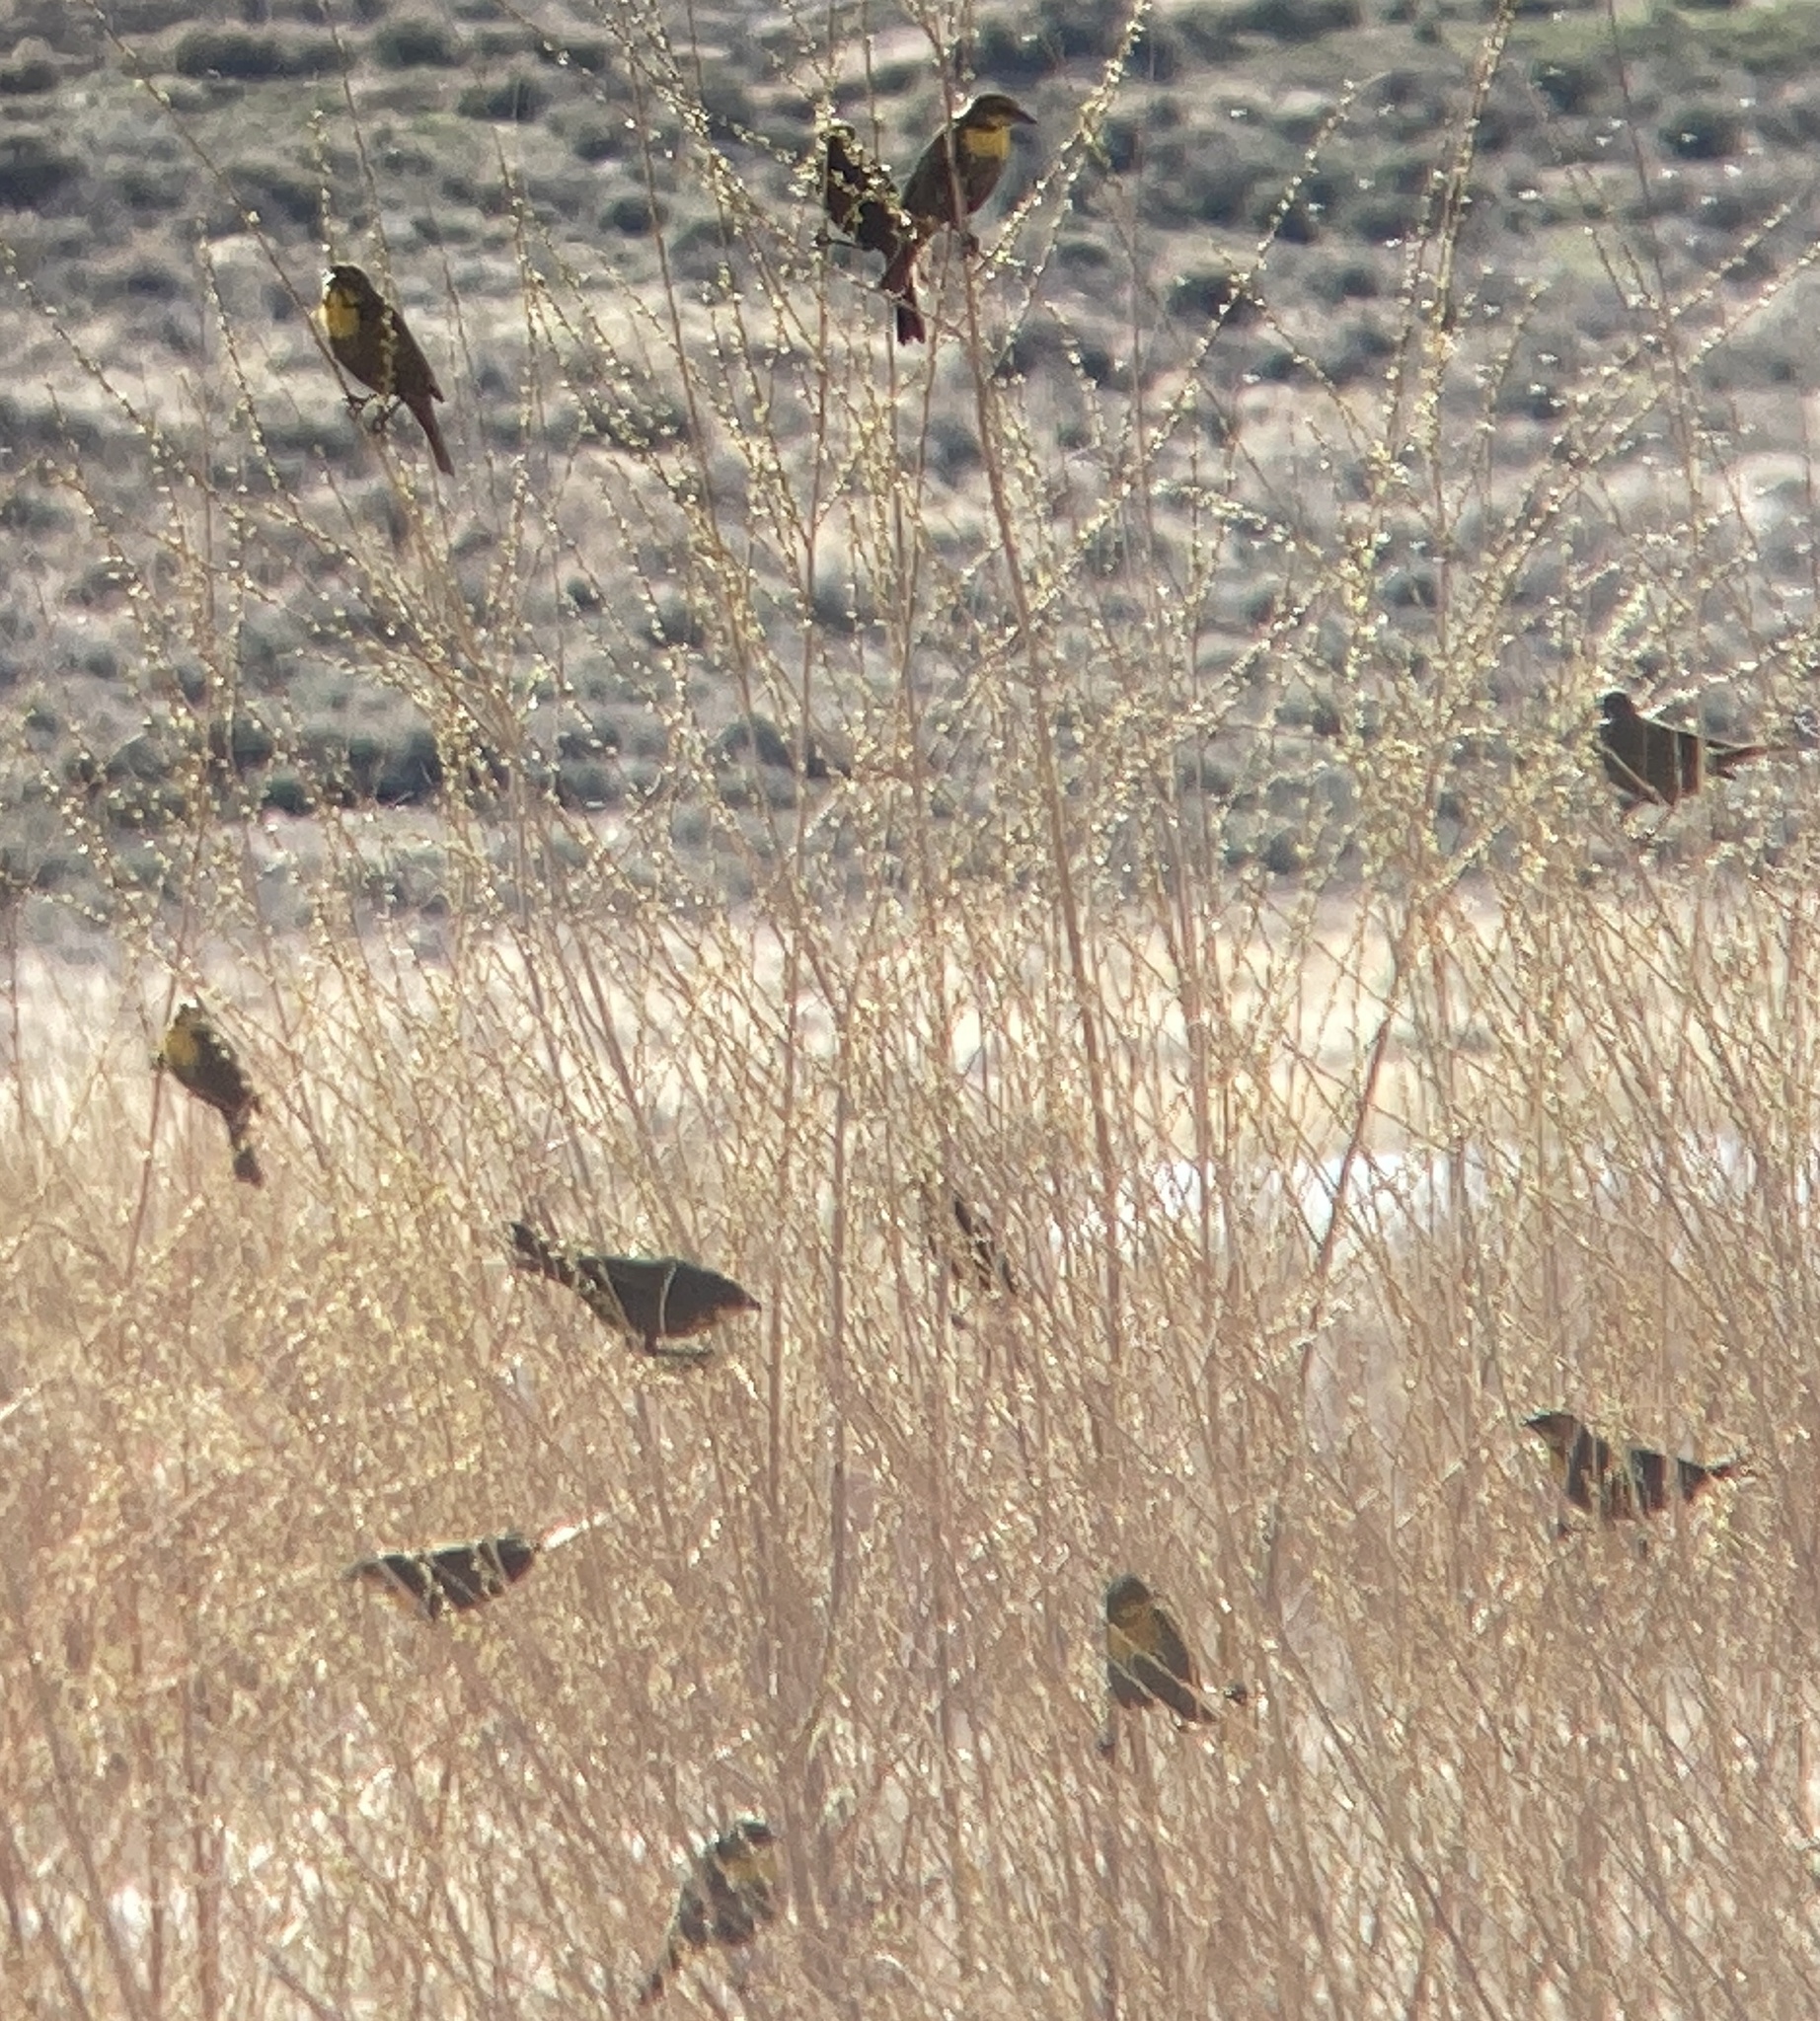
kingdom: Animalia
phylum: Chordata
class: Aves
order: Passeriformes
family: Icteridae
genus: Xanthocephalus
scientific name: Xanthocephalus xanthocephalus
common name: Yellow-headed blackbird
